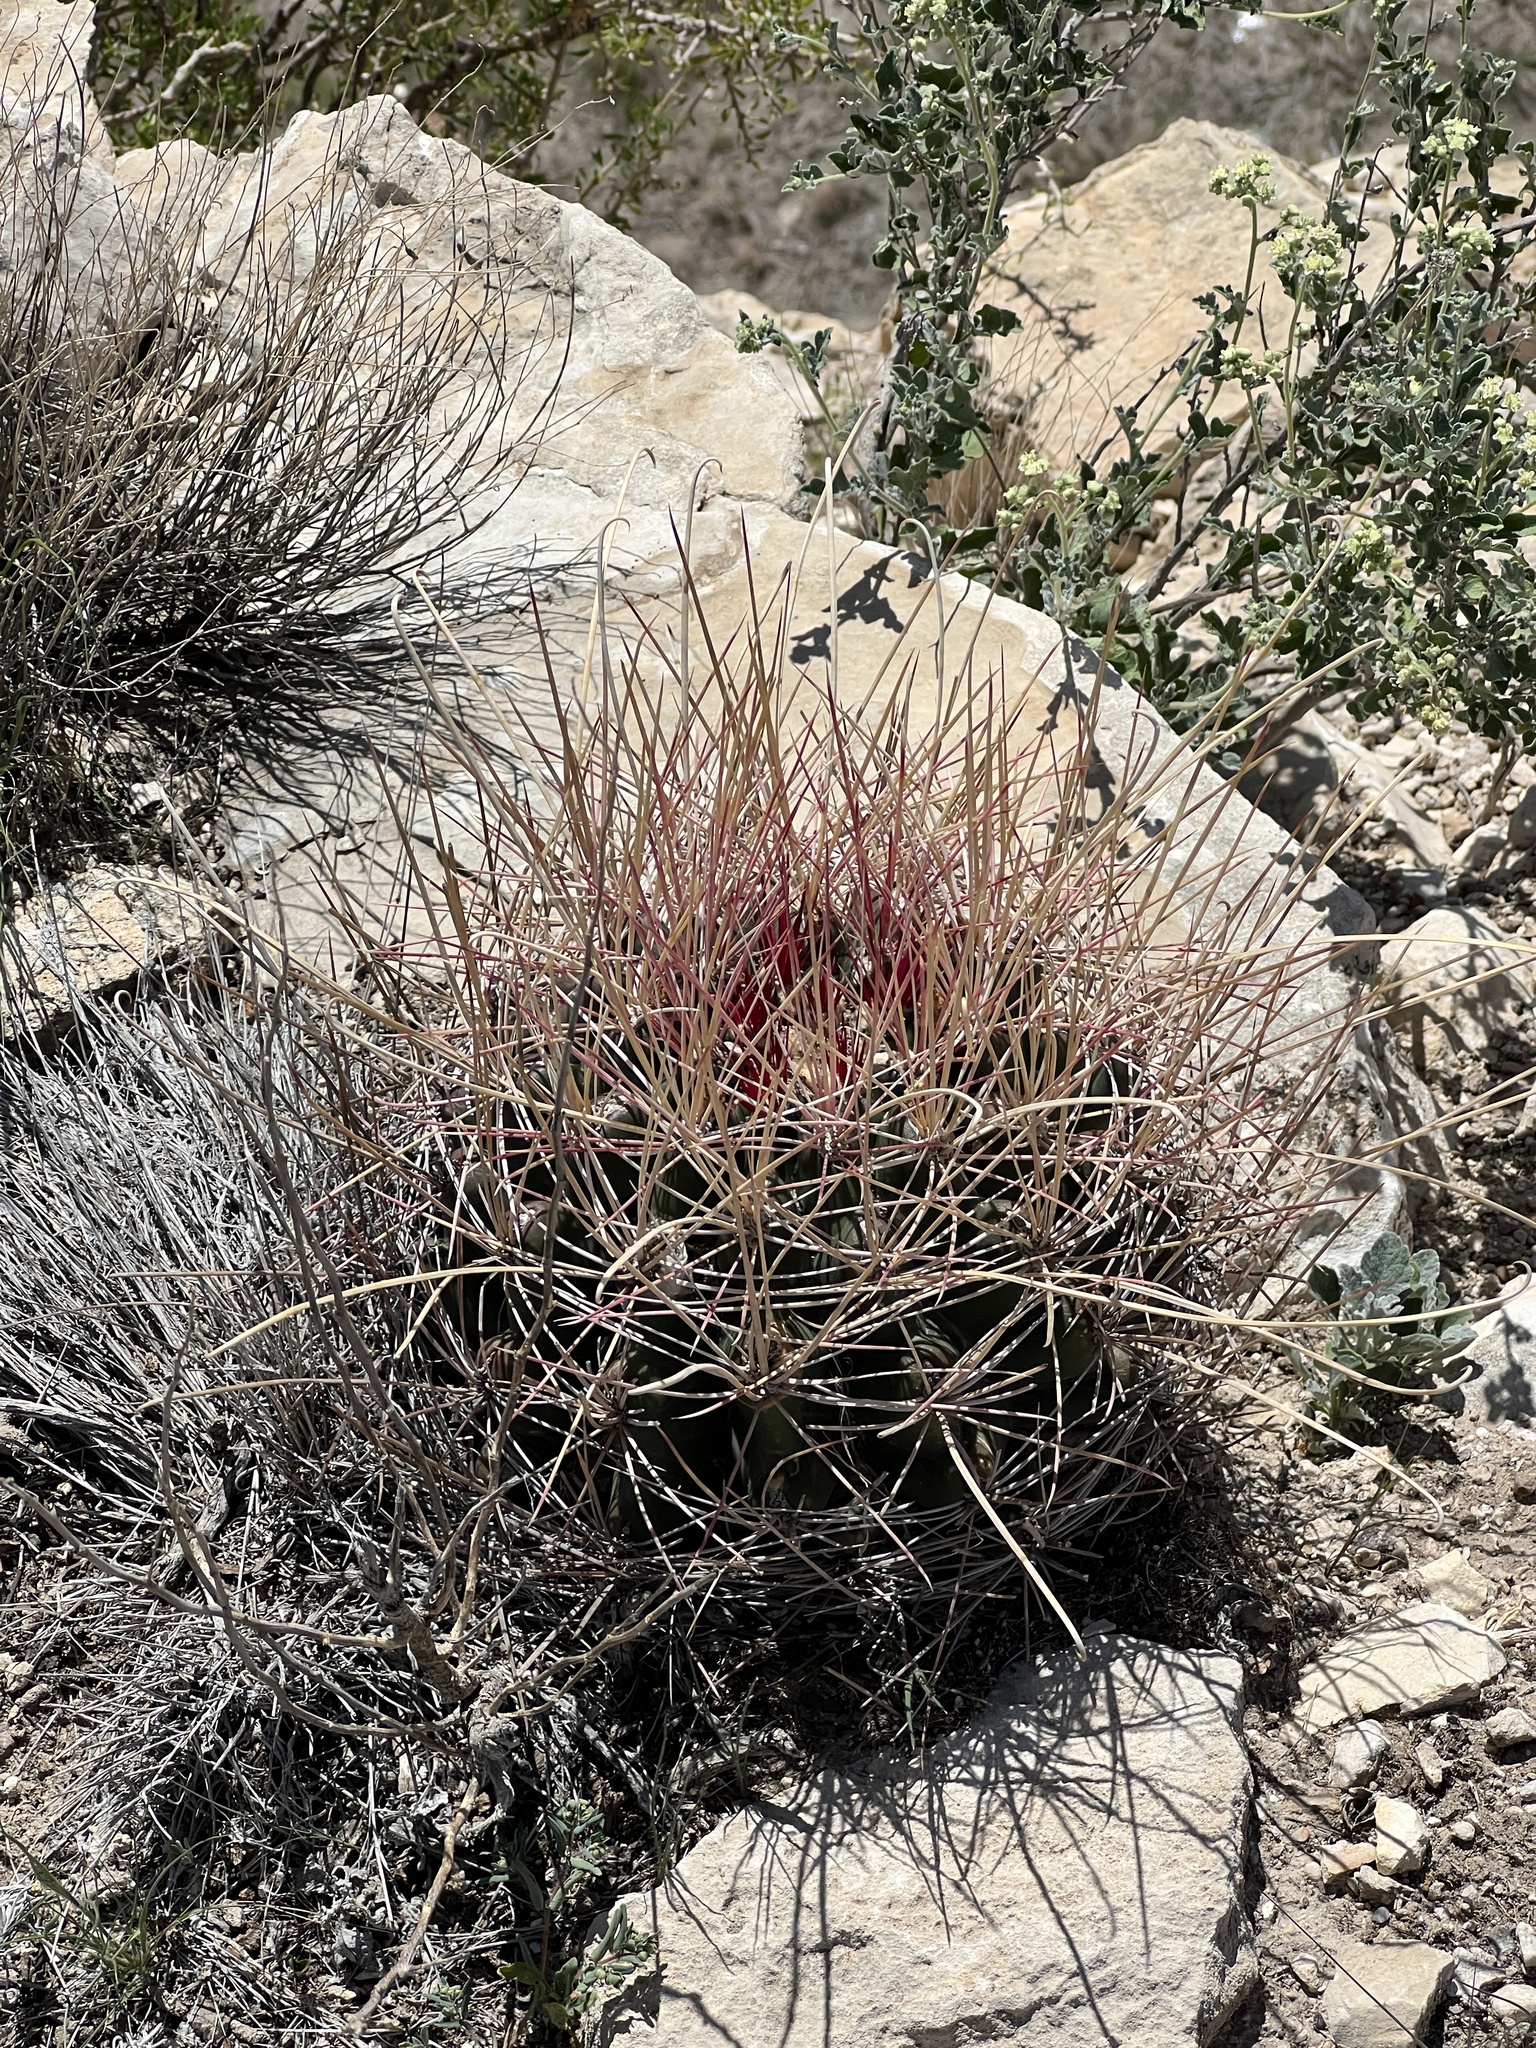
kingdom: Plantae
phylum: Tracheophyta
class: Magnoliopsida
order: Caryophyllales
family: Cactaceae
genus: Bisnaga
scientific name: Bisnaga hamatacantha
